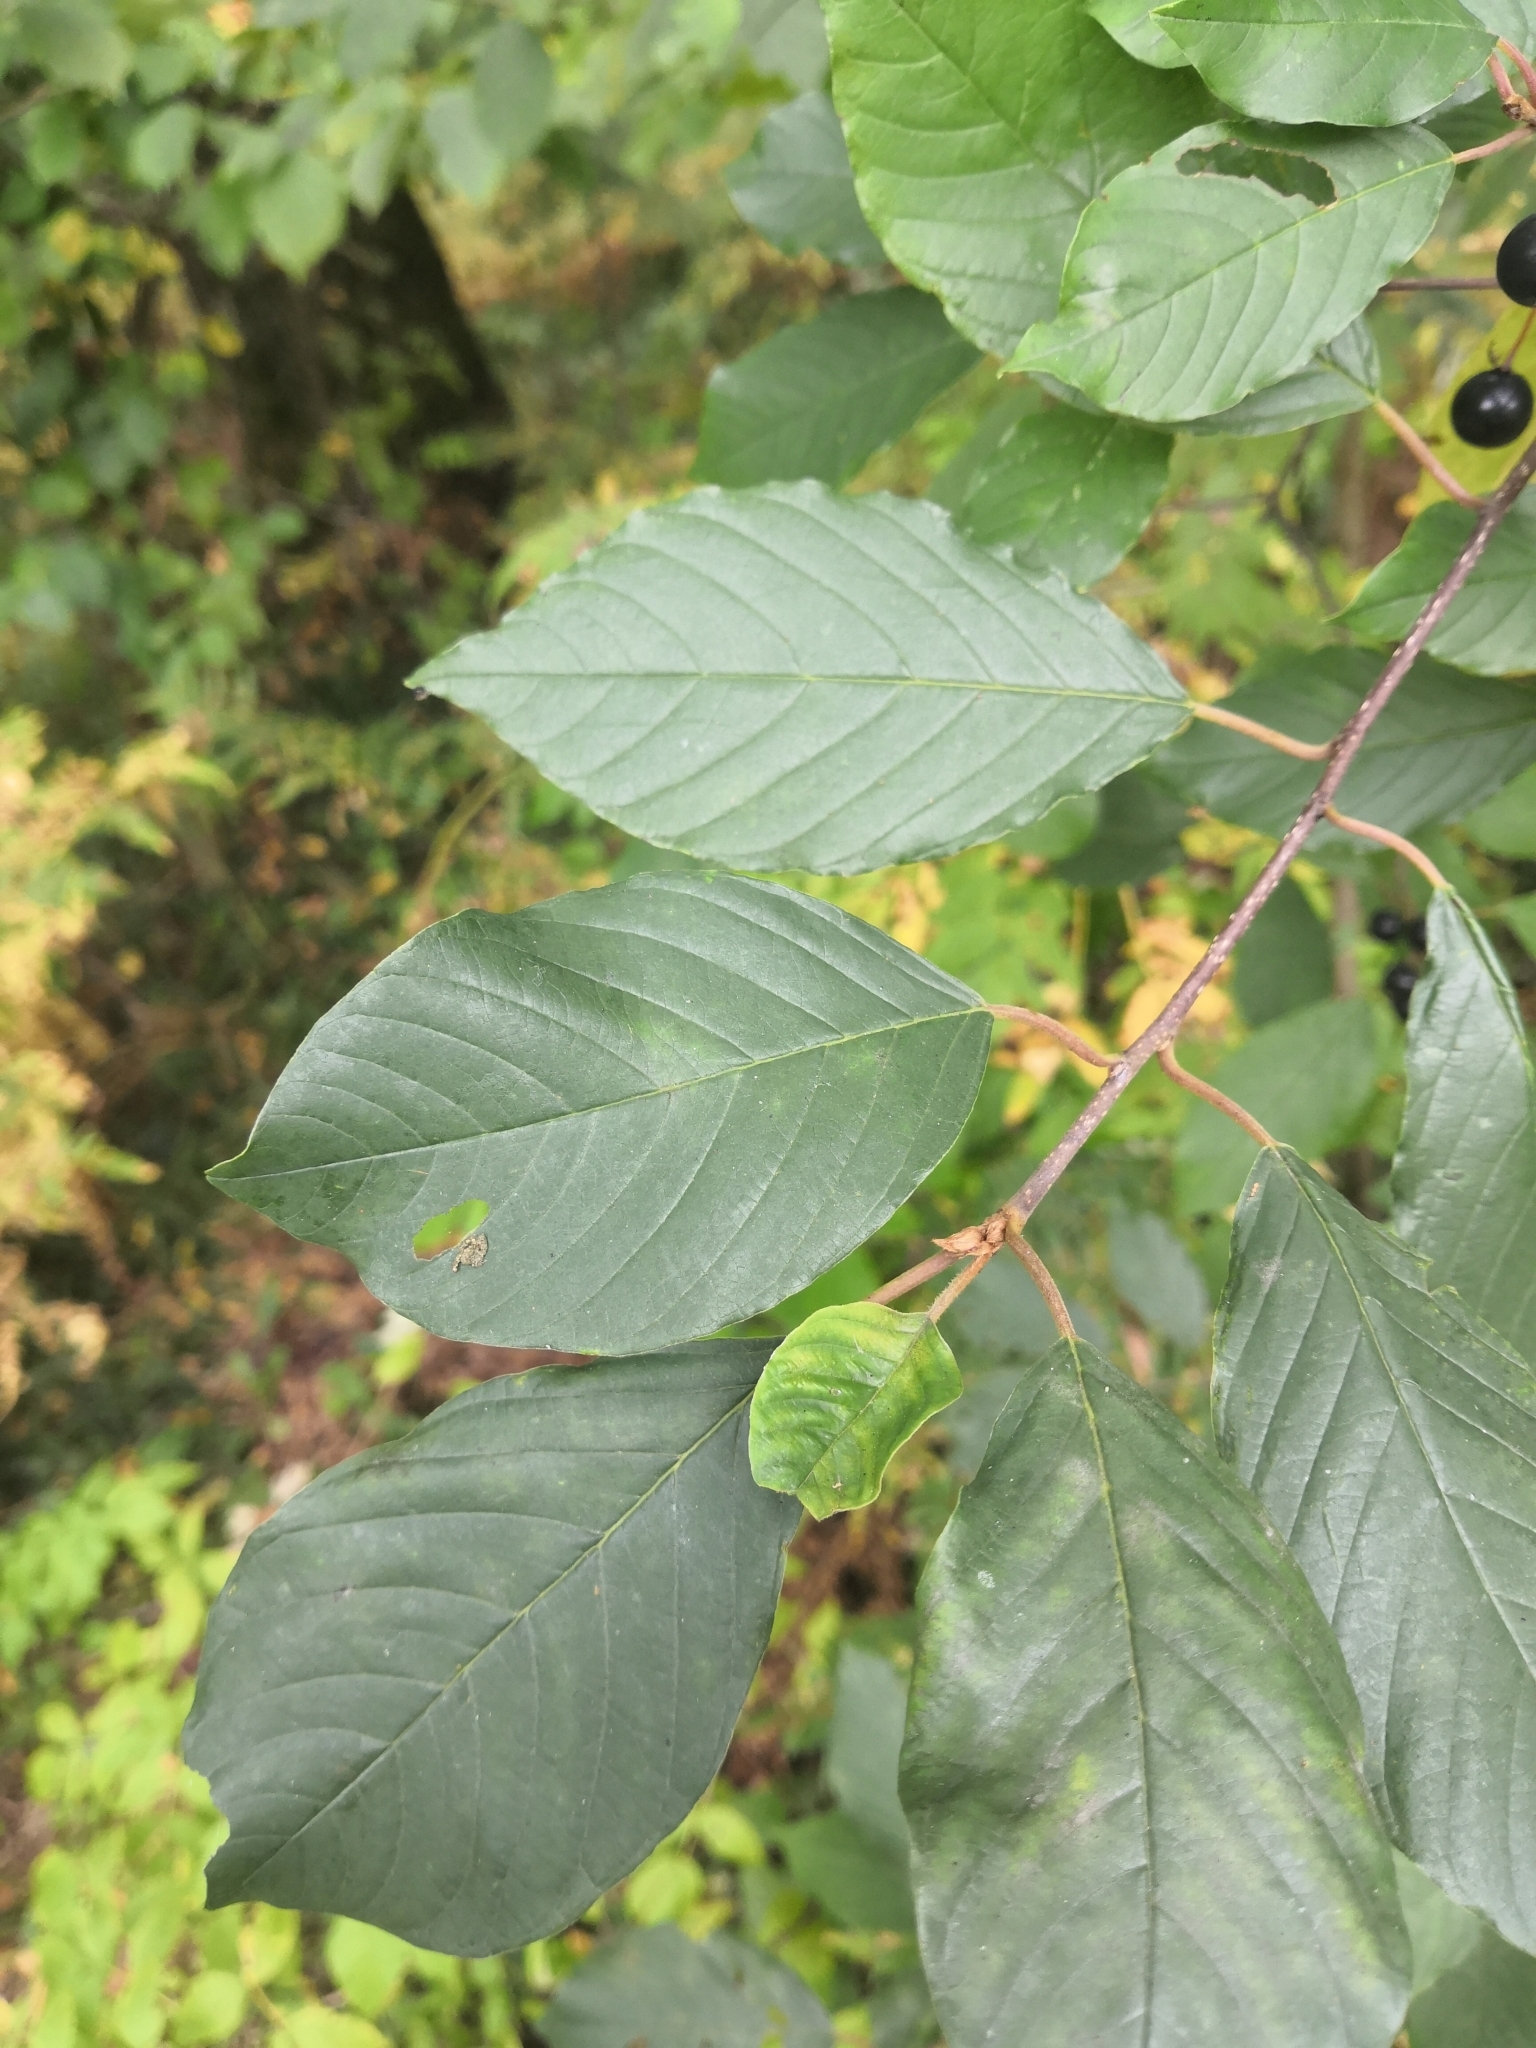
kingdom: Plantae
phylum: Tracheophyta
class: Magnoliopsida
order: Rosales
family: Rhamnaceae
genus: Frangula
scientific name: Frangula alnus
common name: Alder buckthorn
